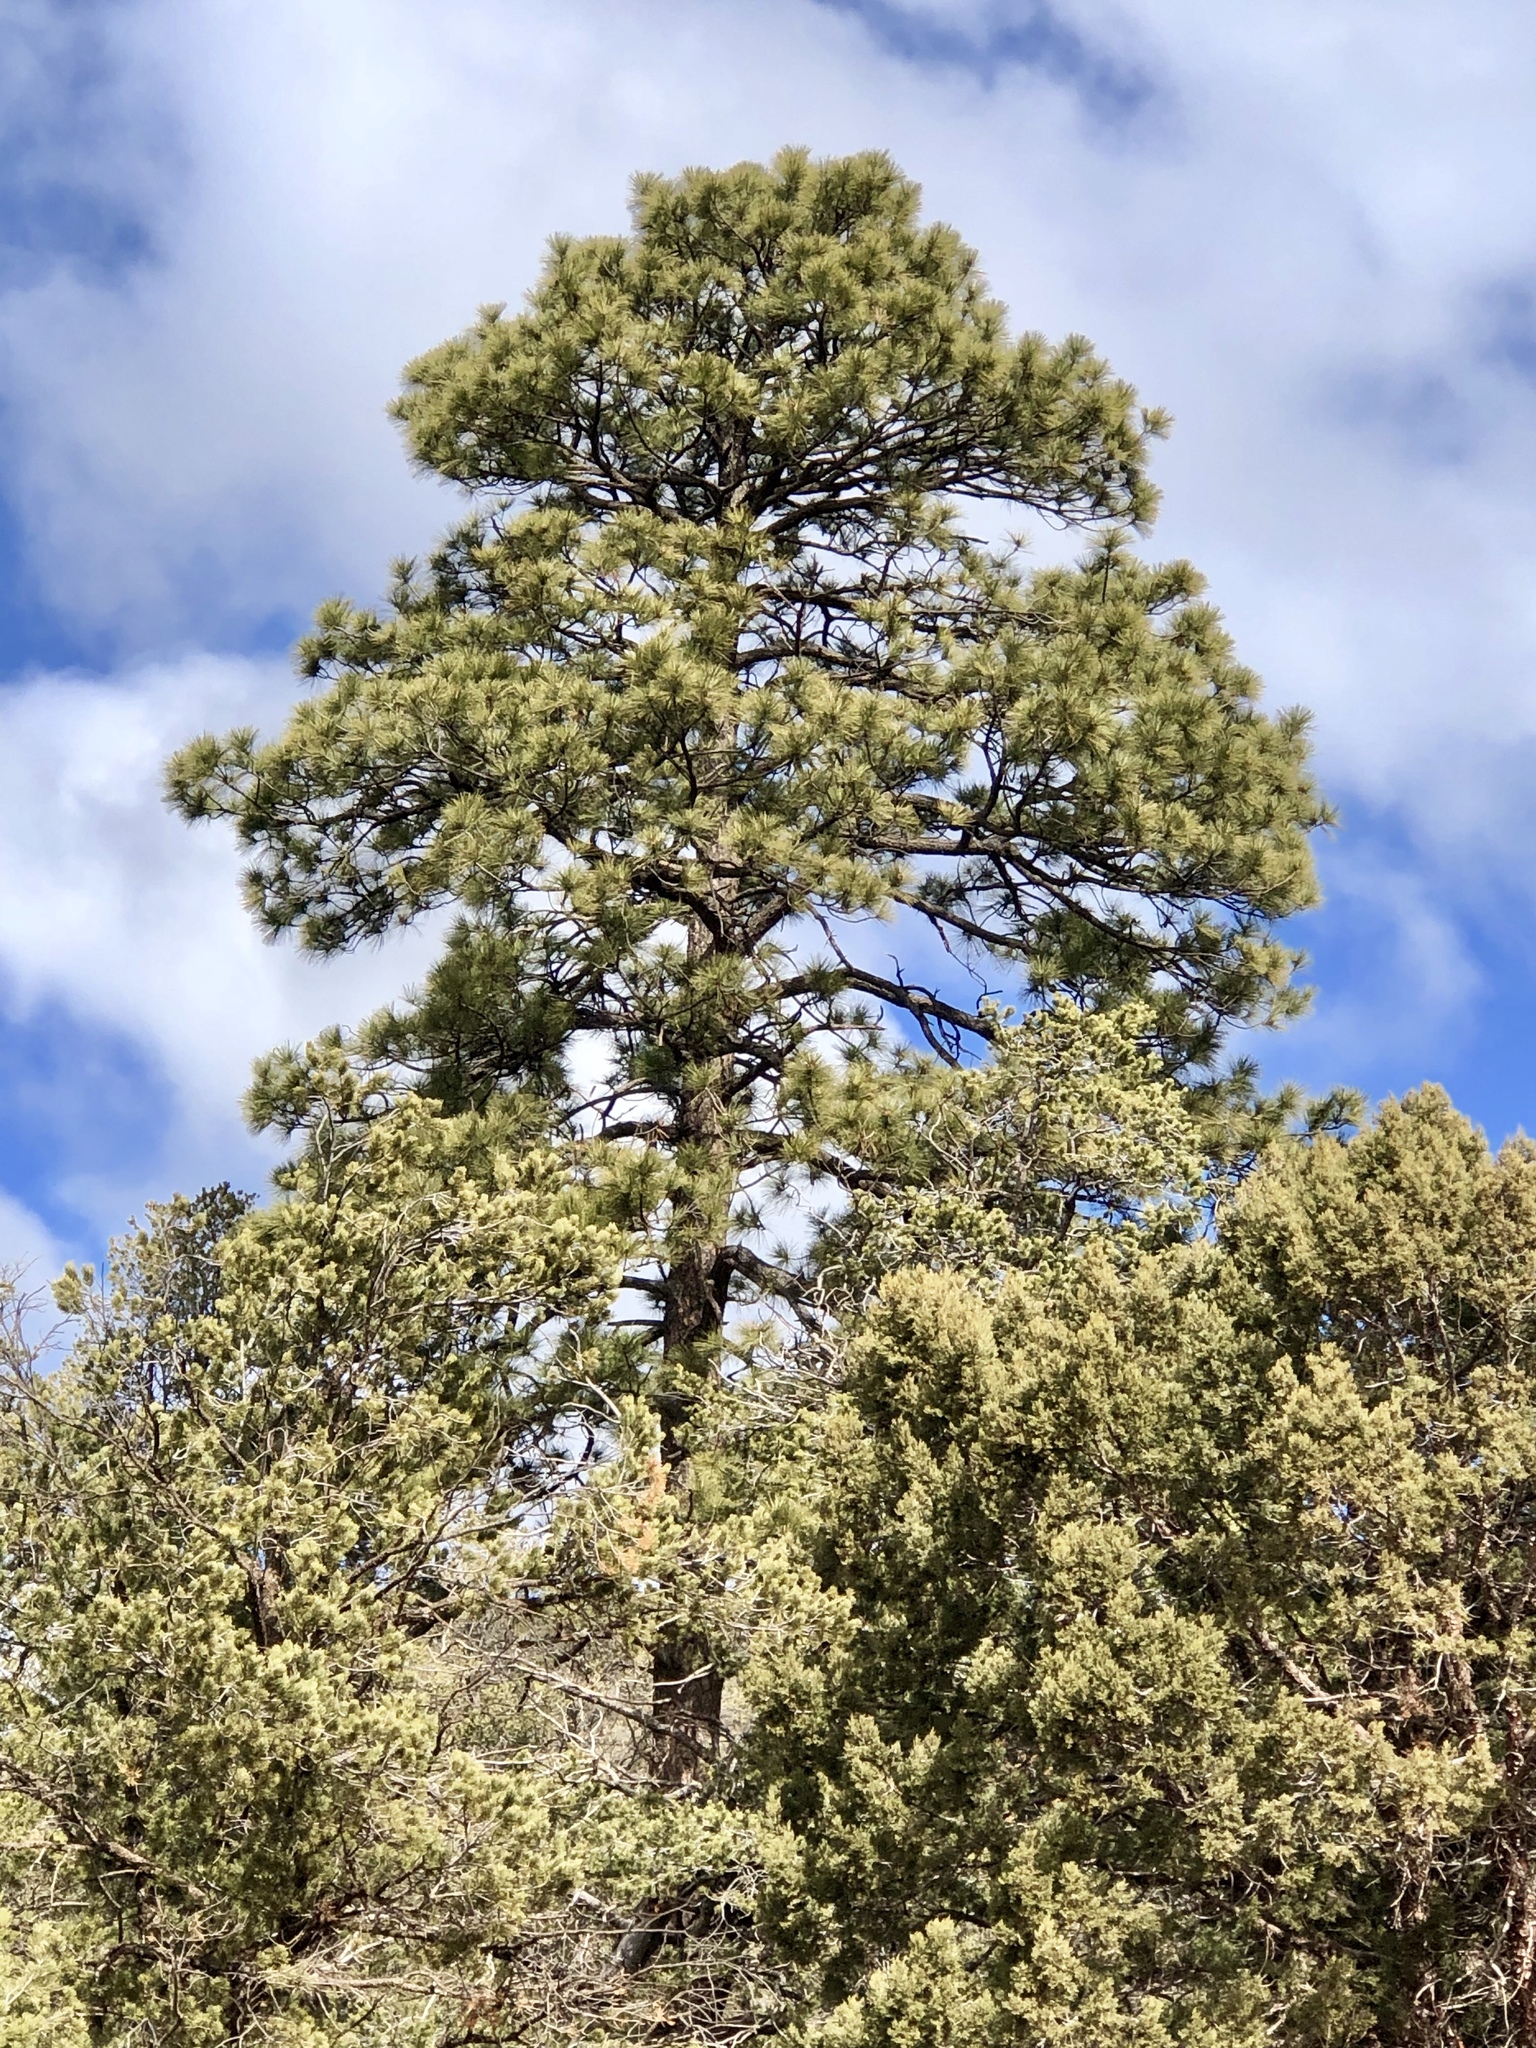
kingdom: Plantae
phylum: Tracheophyta
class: Pinopsida
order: Pinales
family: Pinaceae
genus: Pinus
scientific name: Pinus ponderosa
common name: Western yellow-pine
